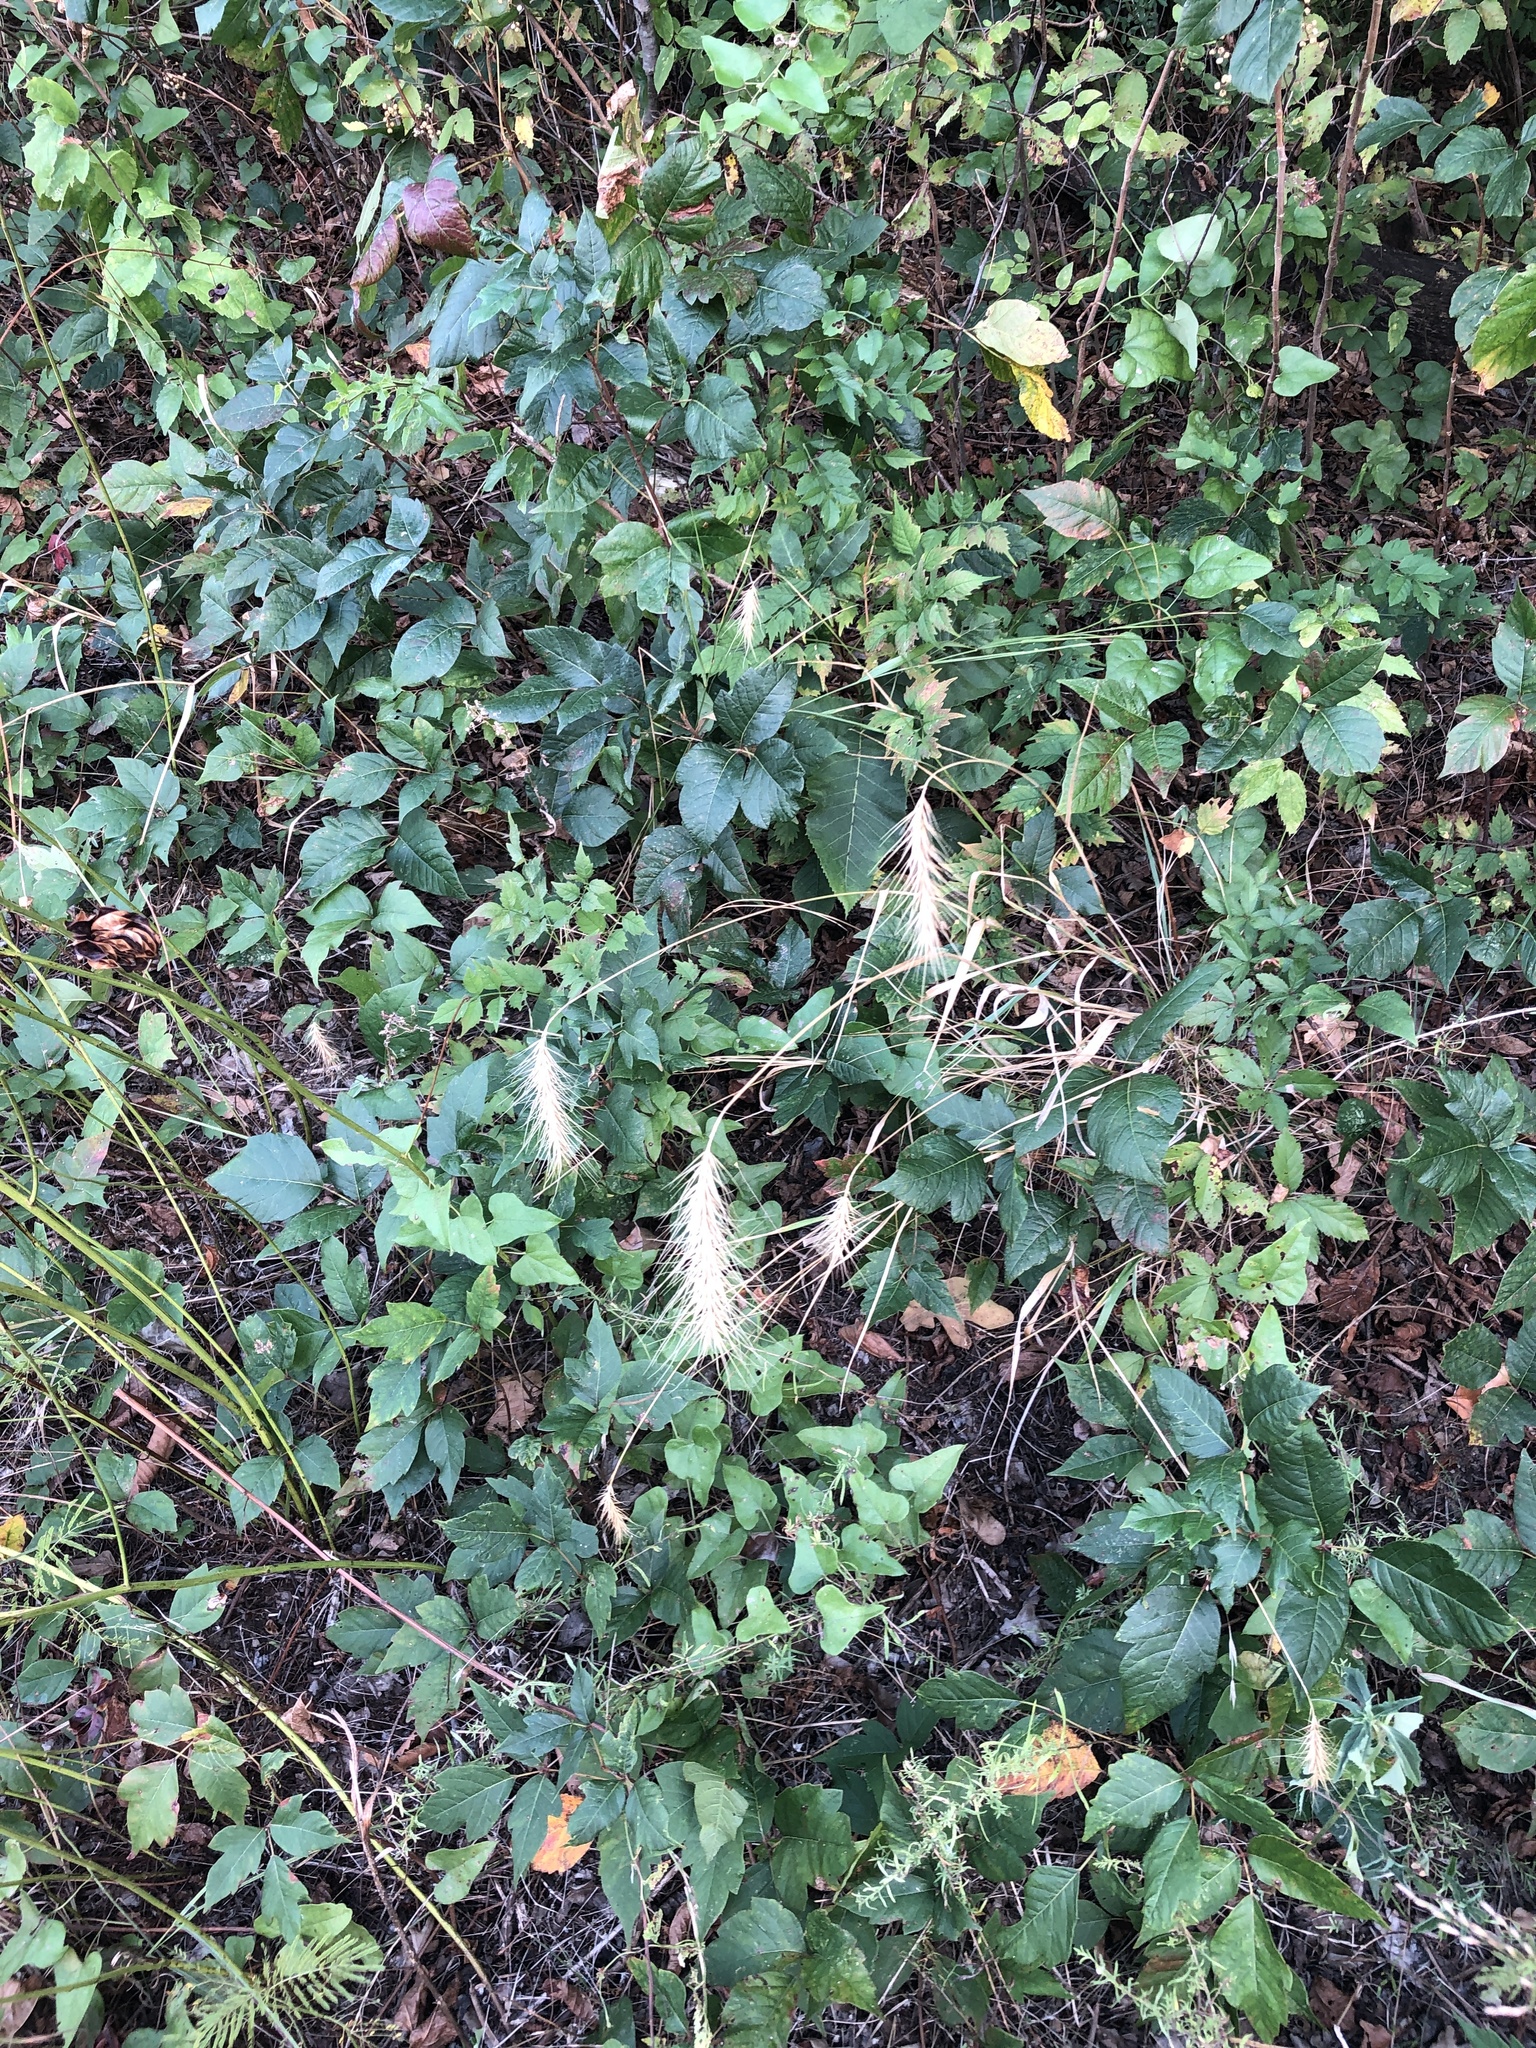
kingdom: Plantae
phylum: Tracheophyta
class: Liliopsida
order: Poales
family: Poaceae
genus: Elymus
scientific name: Elymus canadensis
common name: Canada wild rye
